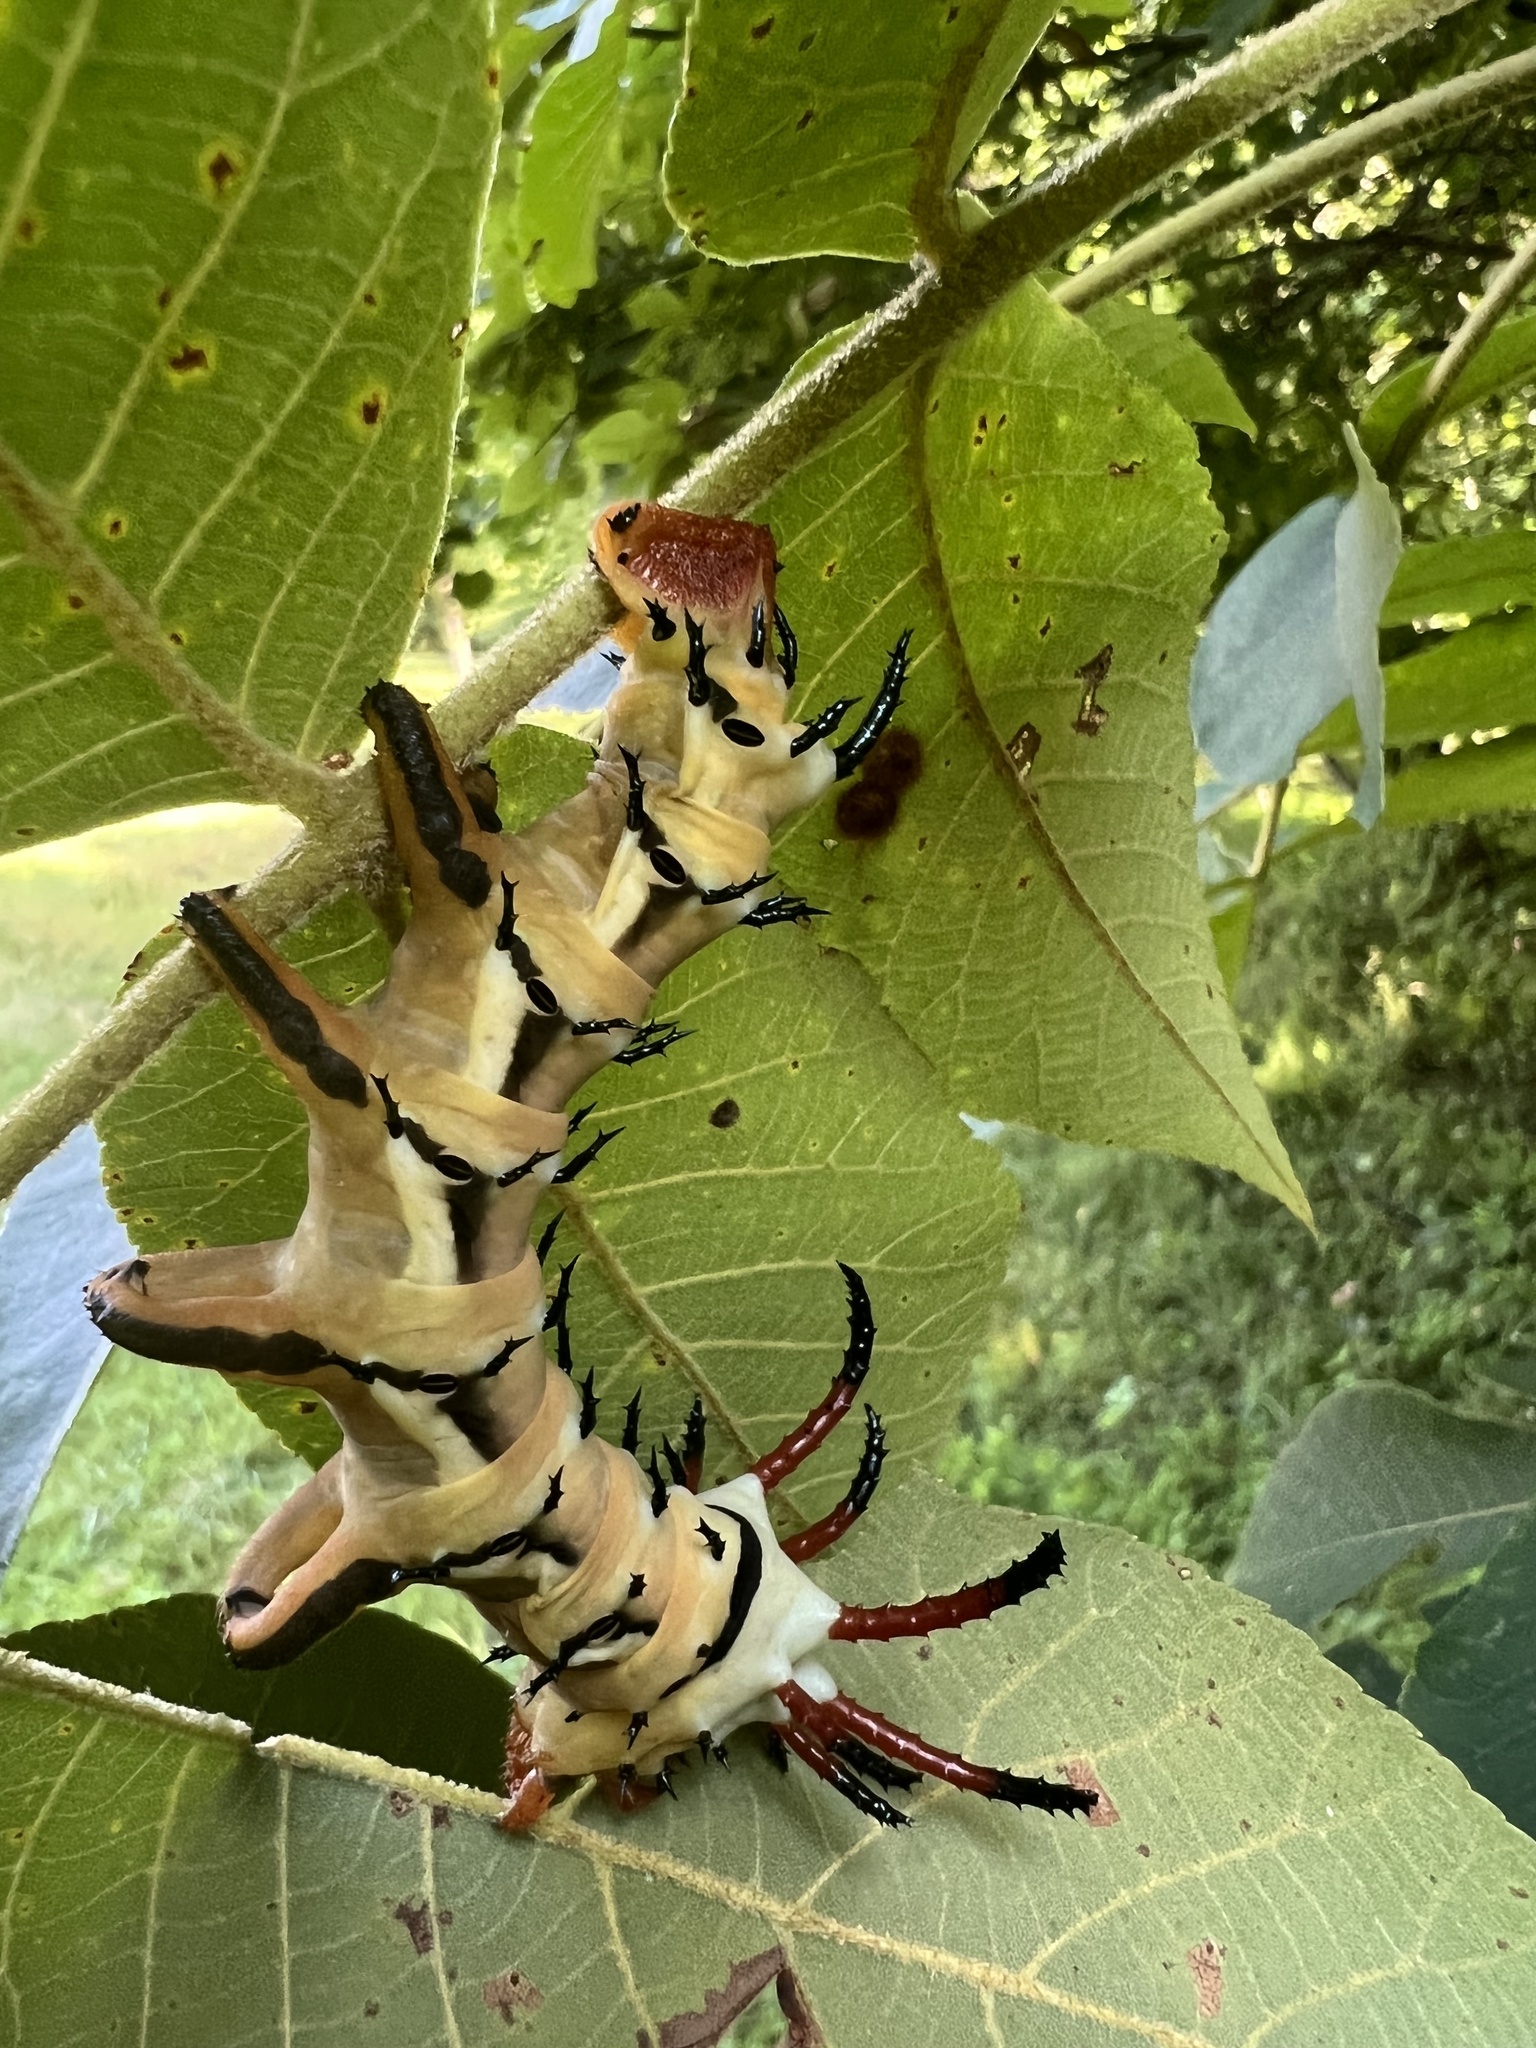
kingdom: Animalia
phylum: Arthropoda
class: Insecta
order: Lepidoptera
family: Saturniidae
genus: Citheronia
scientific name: Citheronia regalis
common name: Hickory horned devil
